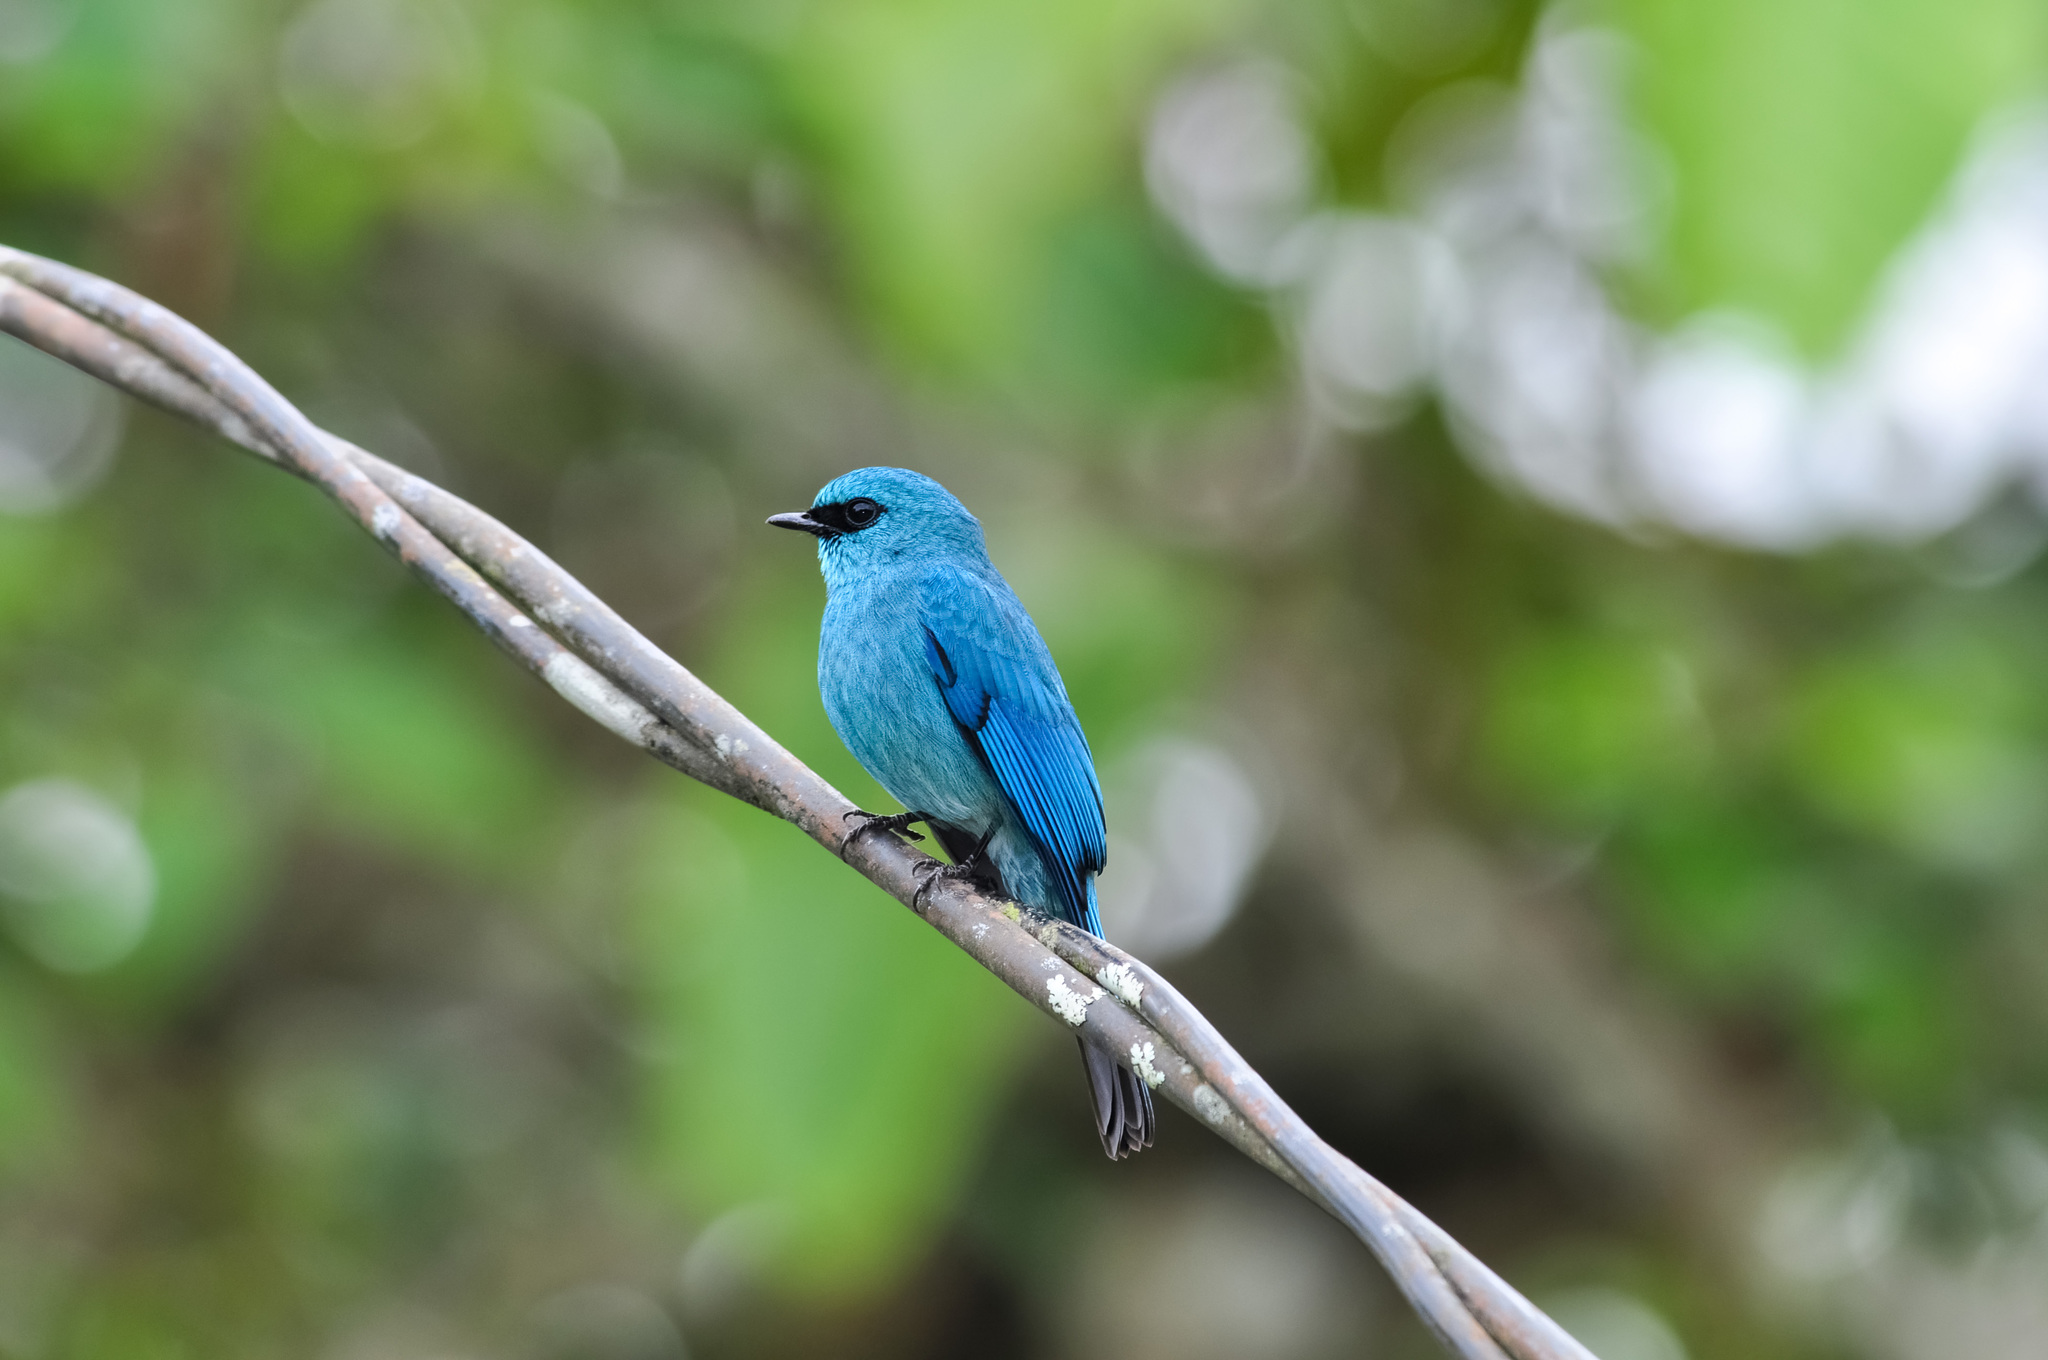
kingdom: Animalia
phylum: Chordata
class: Aves
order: Passeriformes
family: Muscicapidae
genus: Eumyias
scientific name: Eumyias thalassinus
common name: Verditer flycatcher
